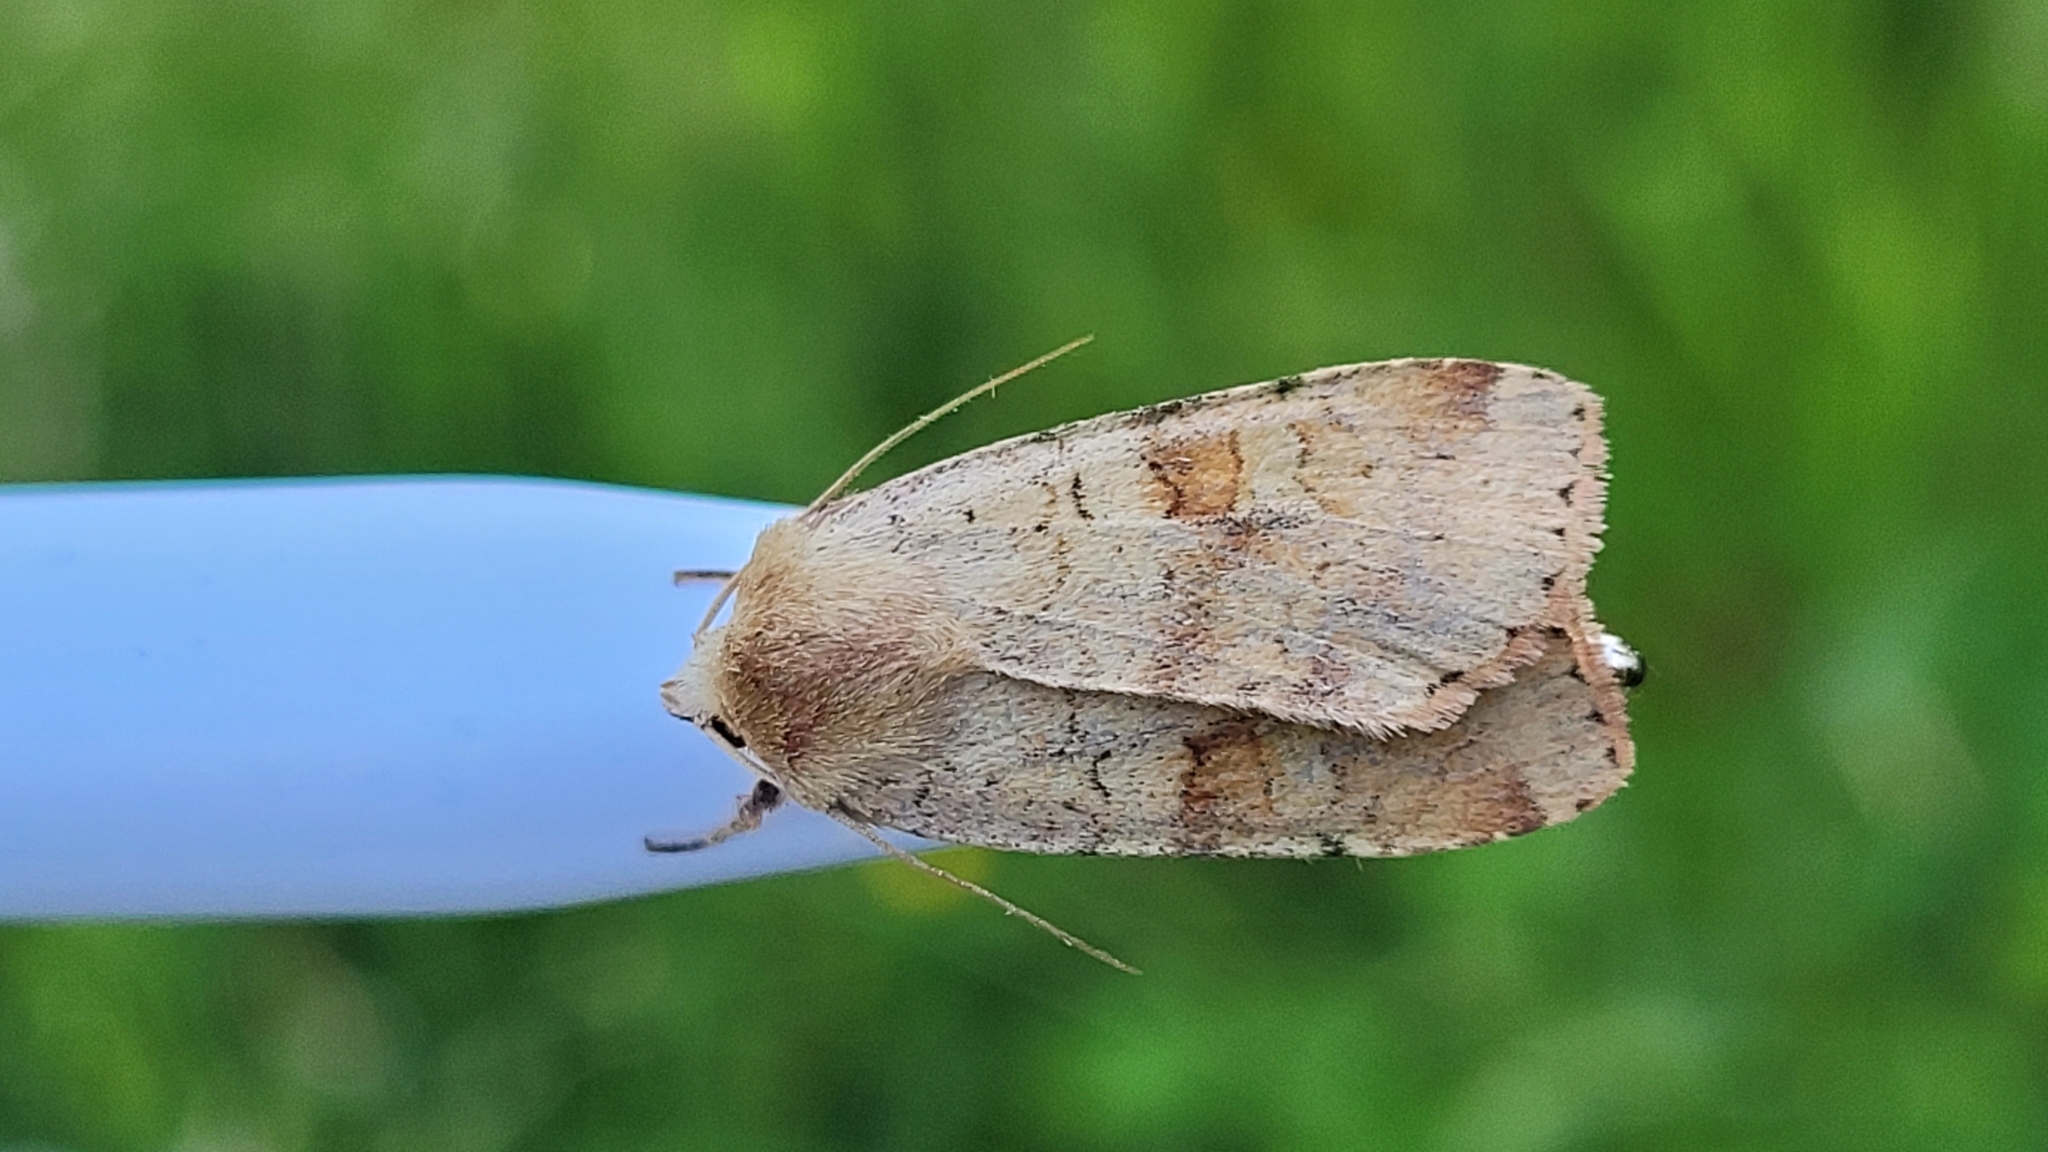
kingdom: Animalia
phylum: Arthropoda
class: Insecta
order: Lepidoptera
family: Noctuidae
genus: Diarsia
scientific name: Diarsia mendica
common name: Ingrailed clay
